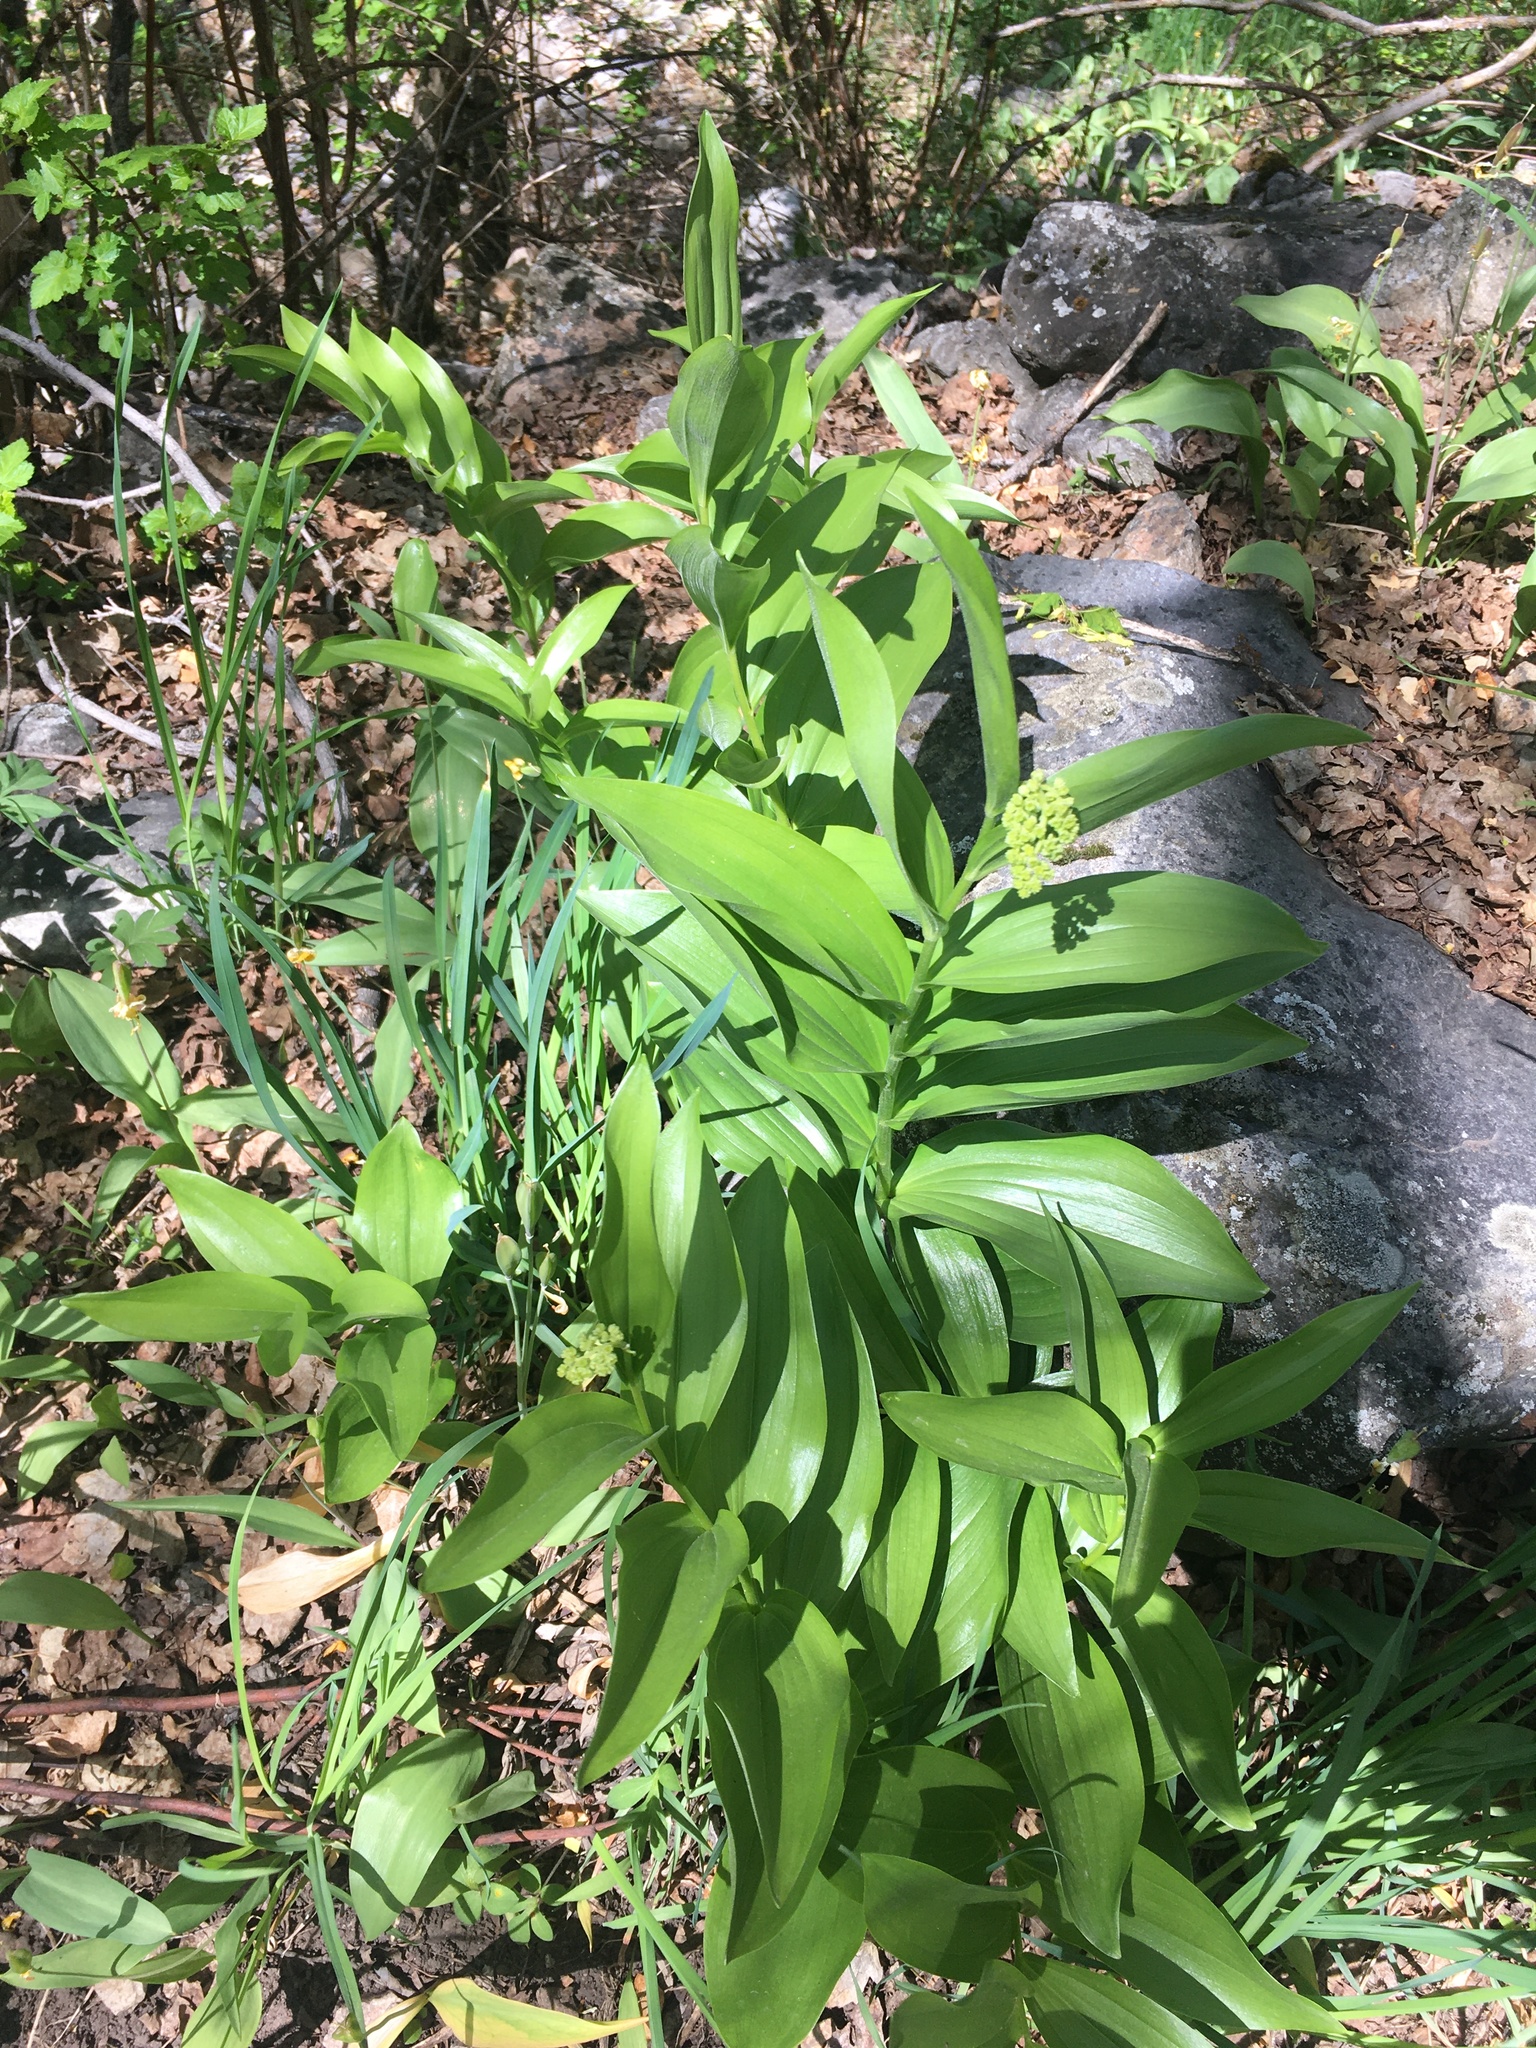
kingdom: Plantae
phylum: Tracheophyta
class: Liliopsida
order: Asparagales
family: Asparagaceae
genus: Maianthemum
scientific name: Maianthemum racemosum
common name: False spikenard
